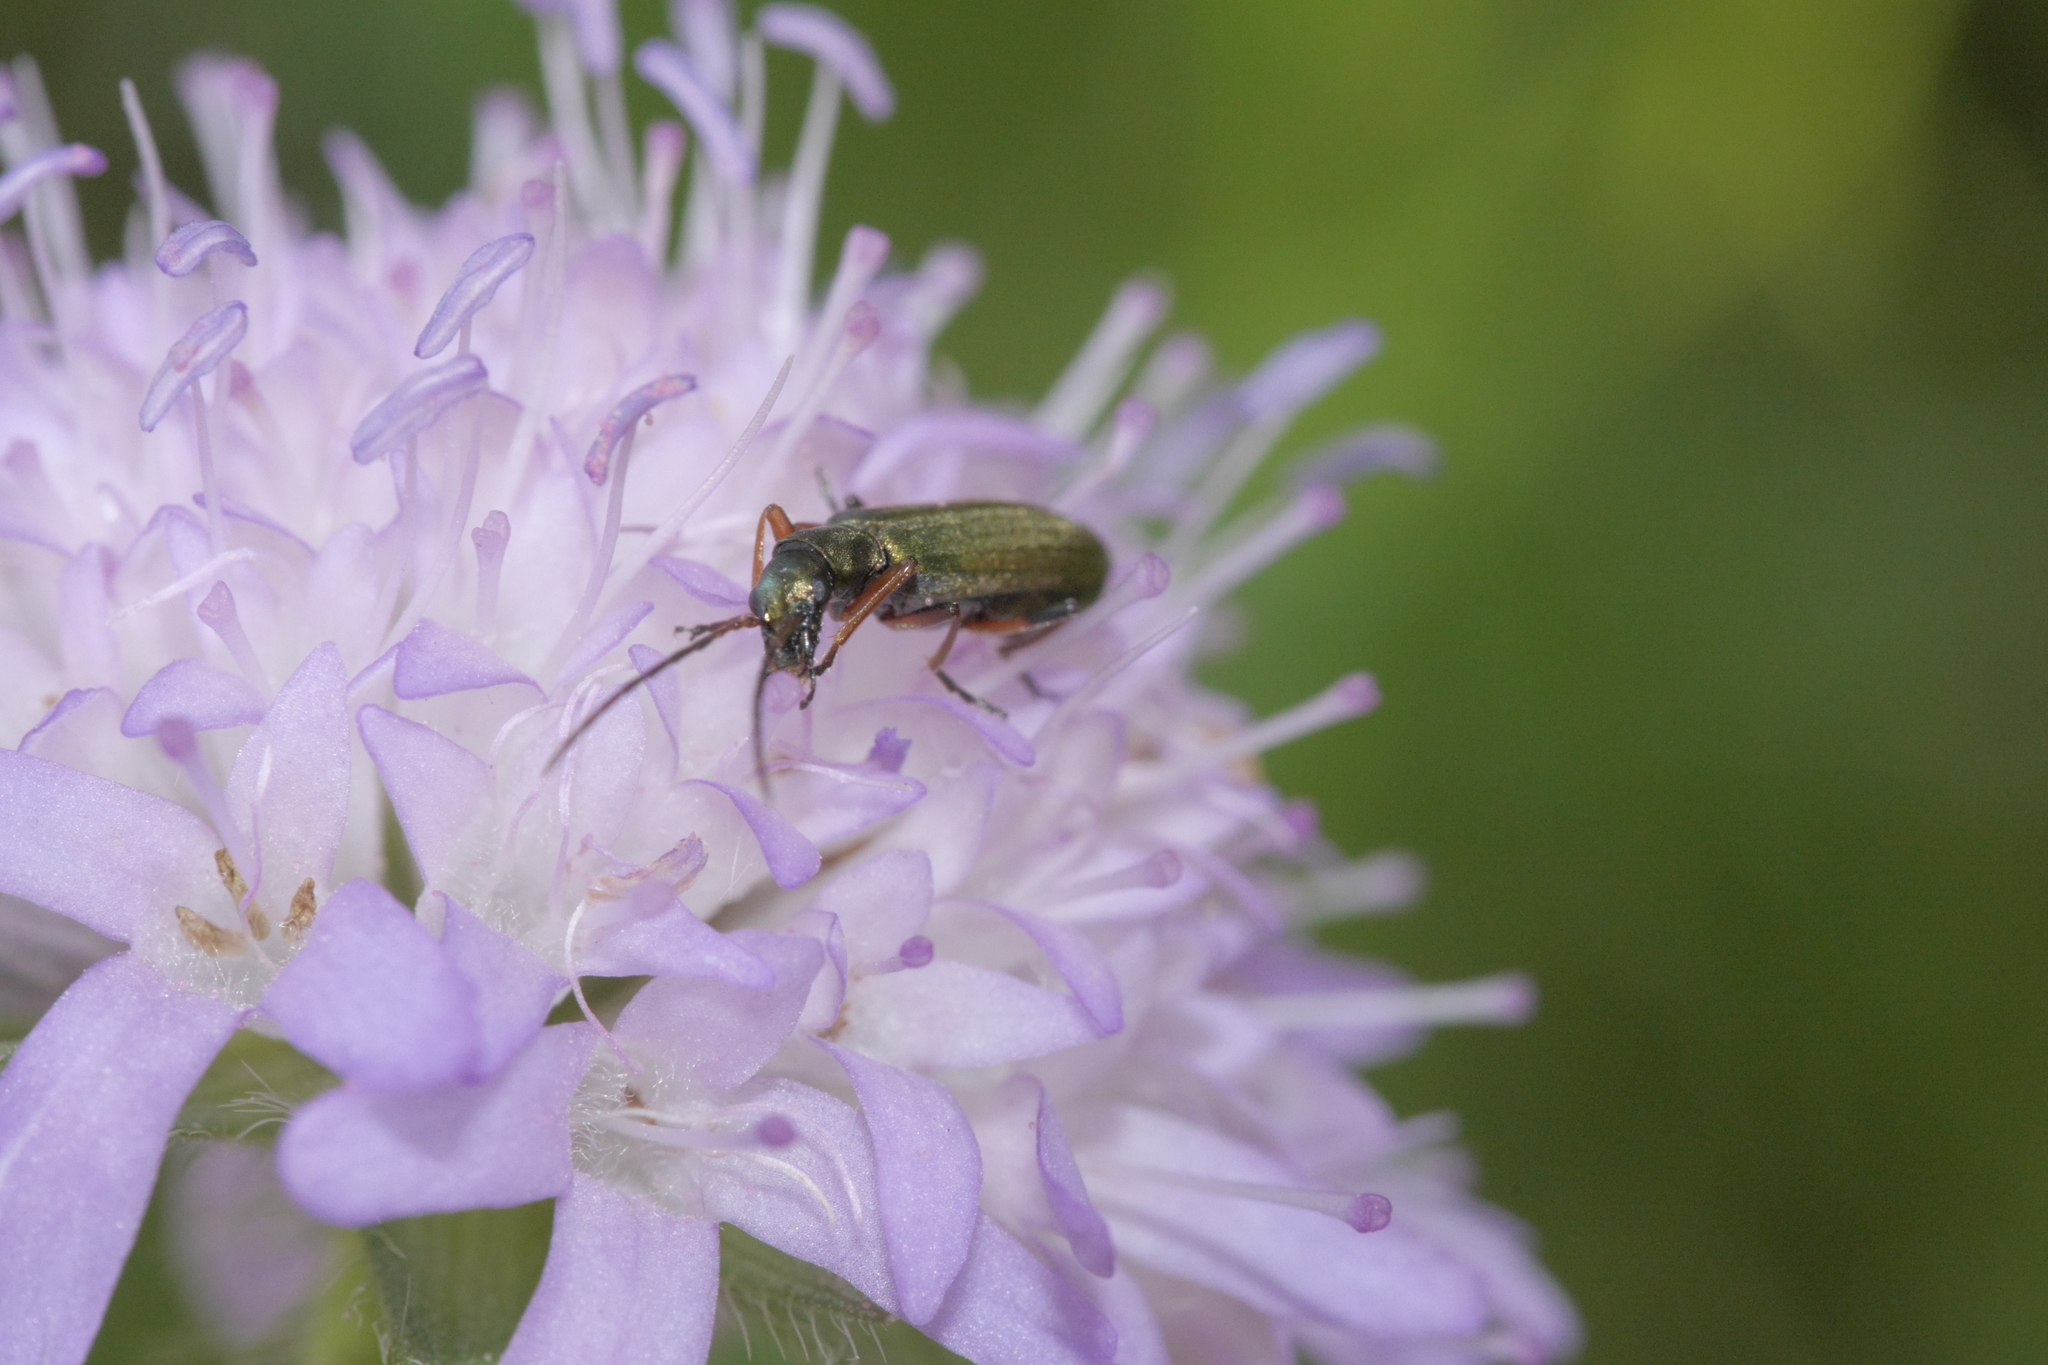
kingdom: Animalia
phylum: Arthropoda
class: Insecta
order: Coleoptera
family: Oedemeridae
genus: Chrysanthia
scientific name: Chrysanthia geniculata
